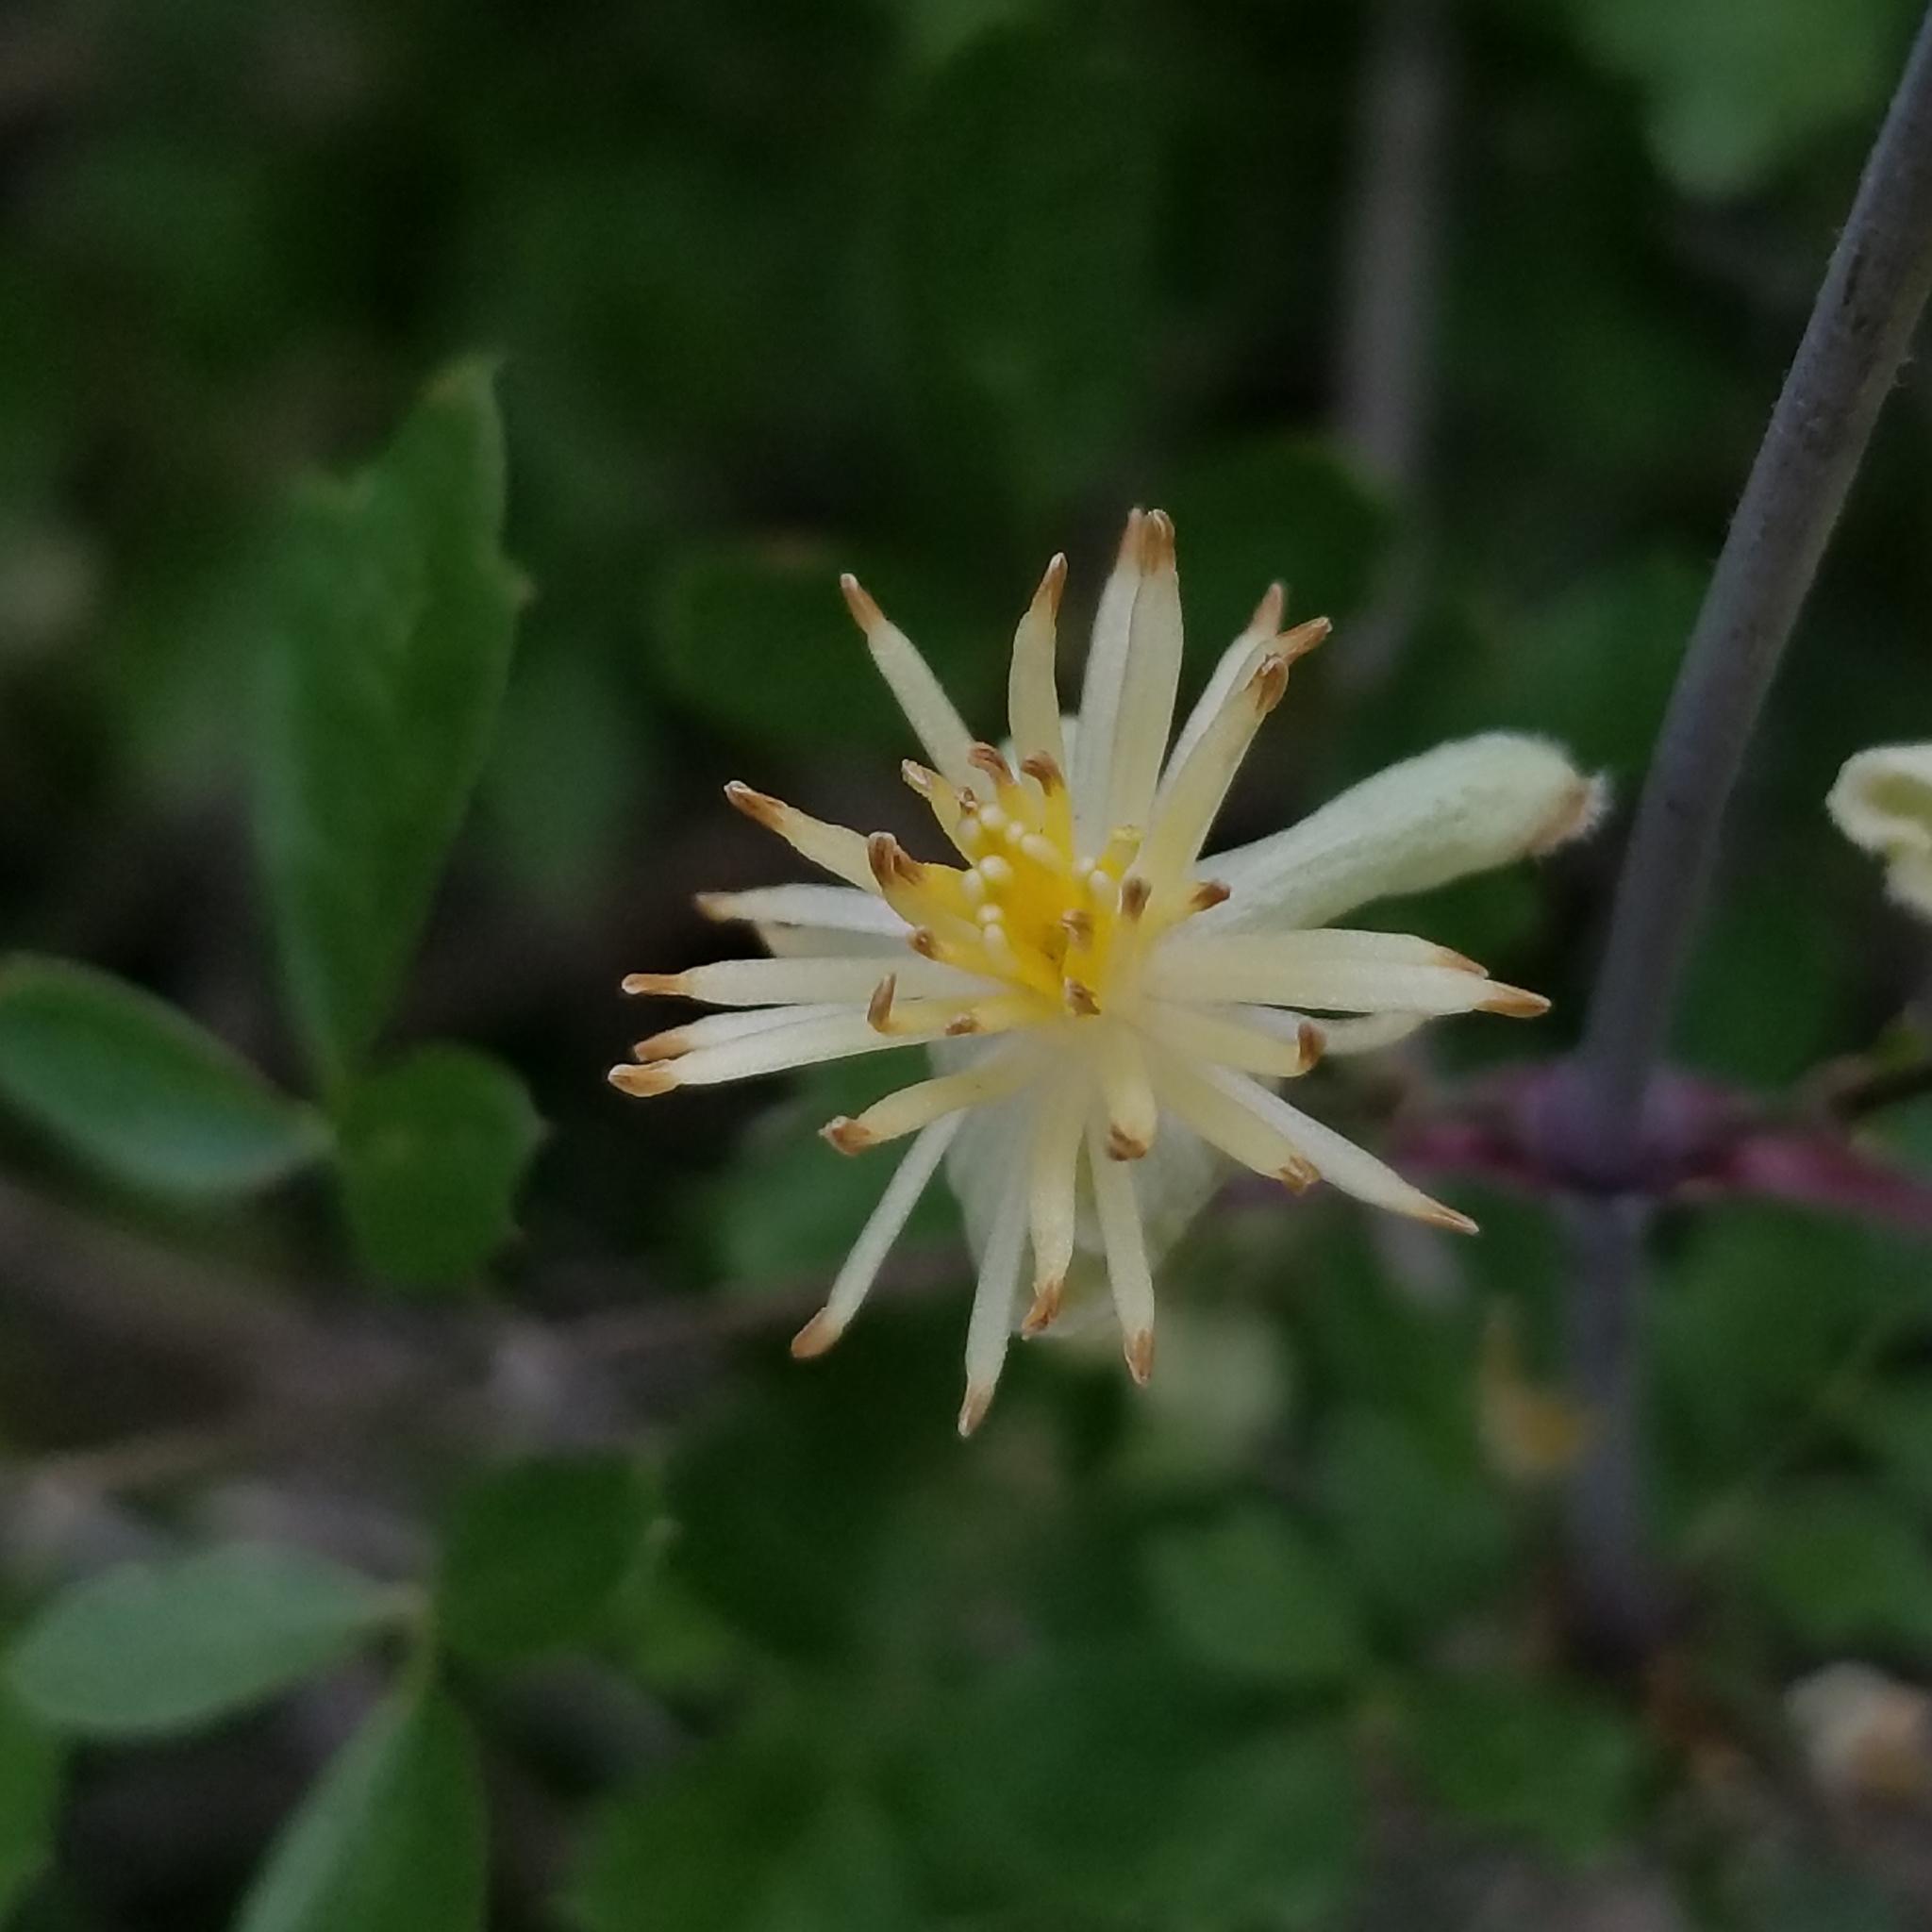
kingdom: Plantae
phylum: Tracheophyta
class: Magnoliopsida
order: Ranunculales
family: Ranunculaceae
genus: Clematis
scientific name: Clematis pauciflora
